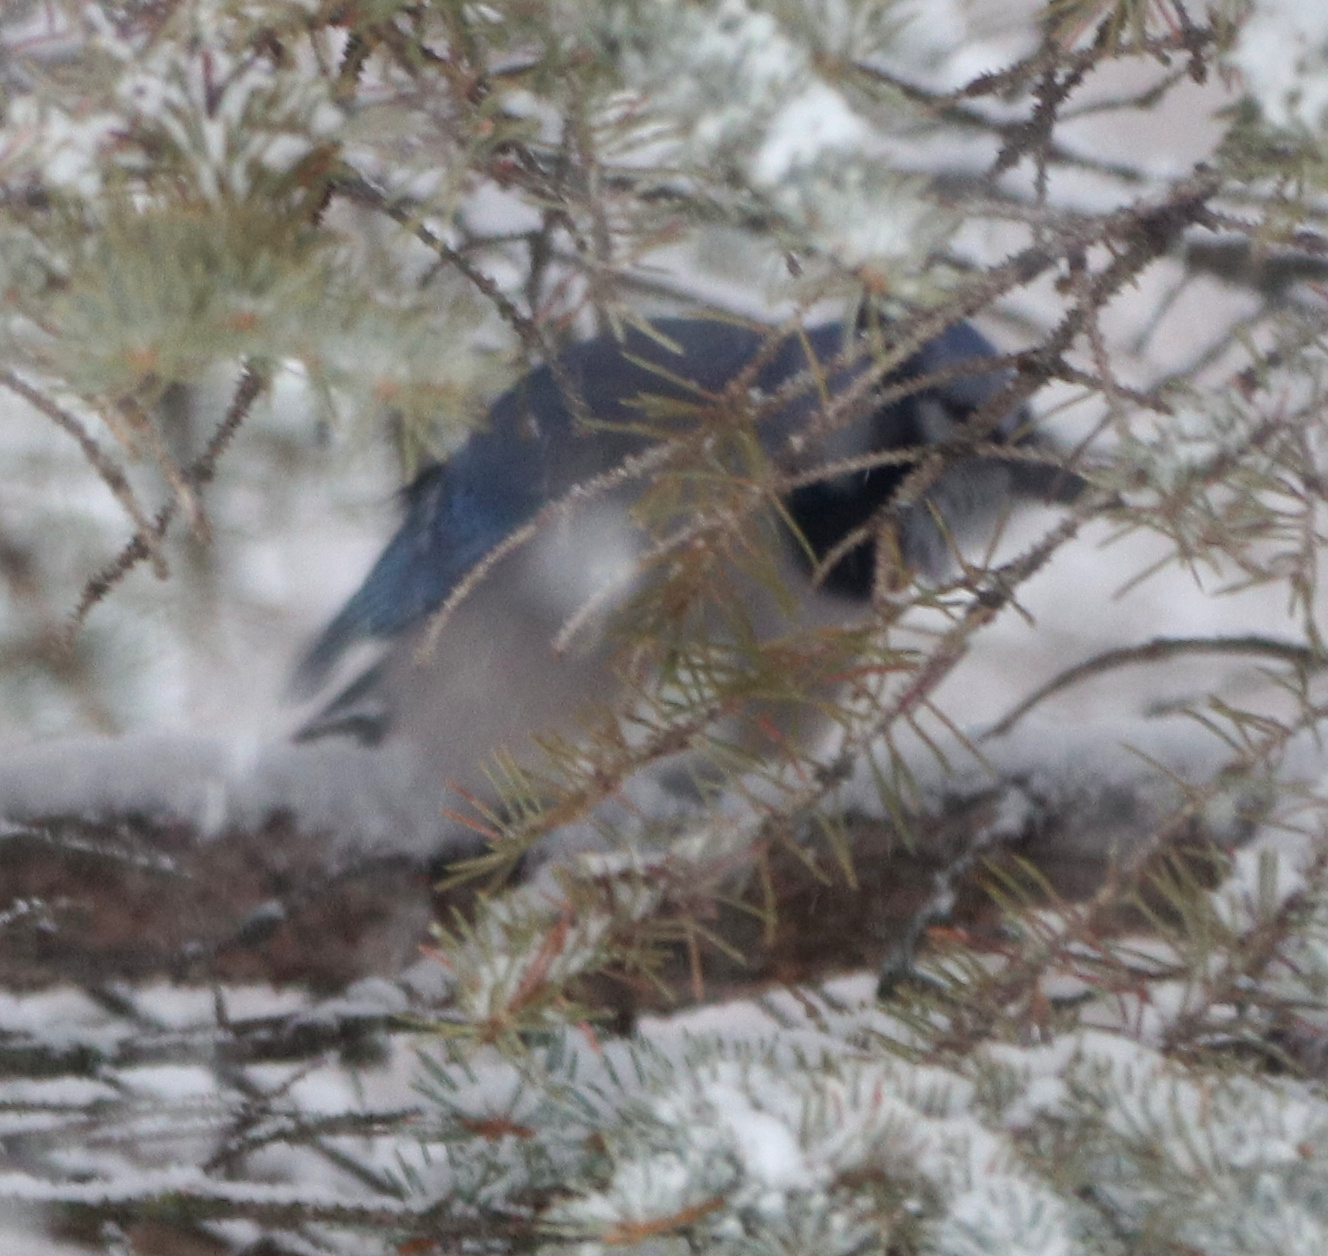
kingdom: Animalia
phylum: Chordata
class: Aves
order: Passeriformes
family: Corvidae
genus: Cyanocitta
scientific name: Cyanocitta cristata
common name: Blue jay
